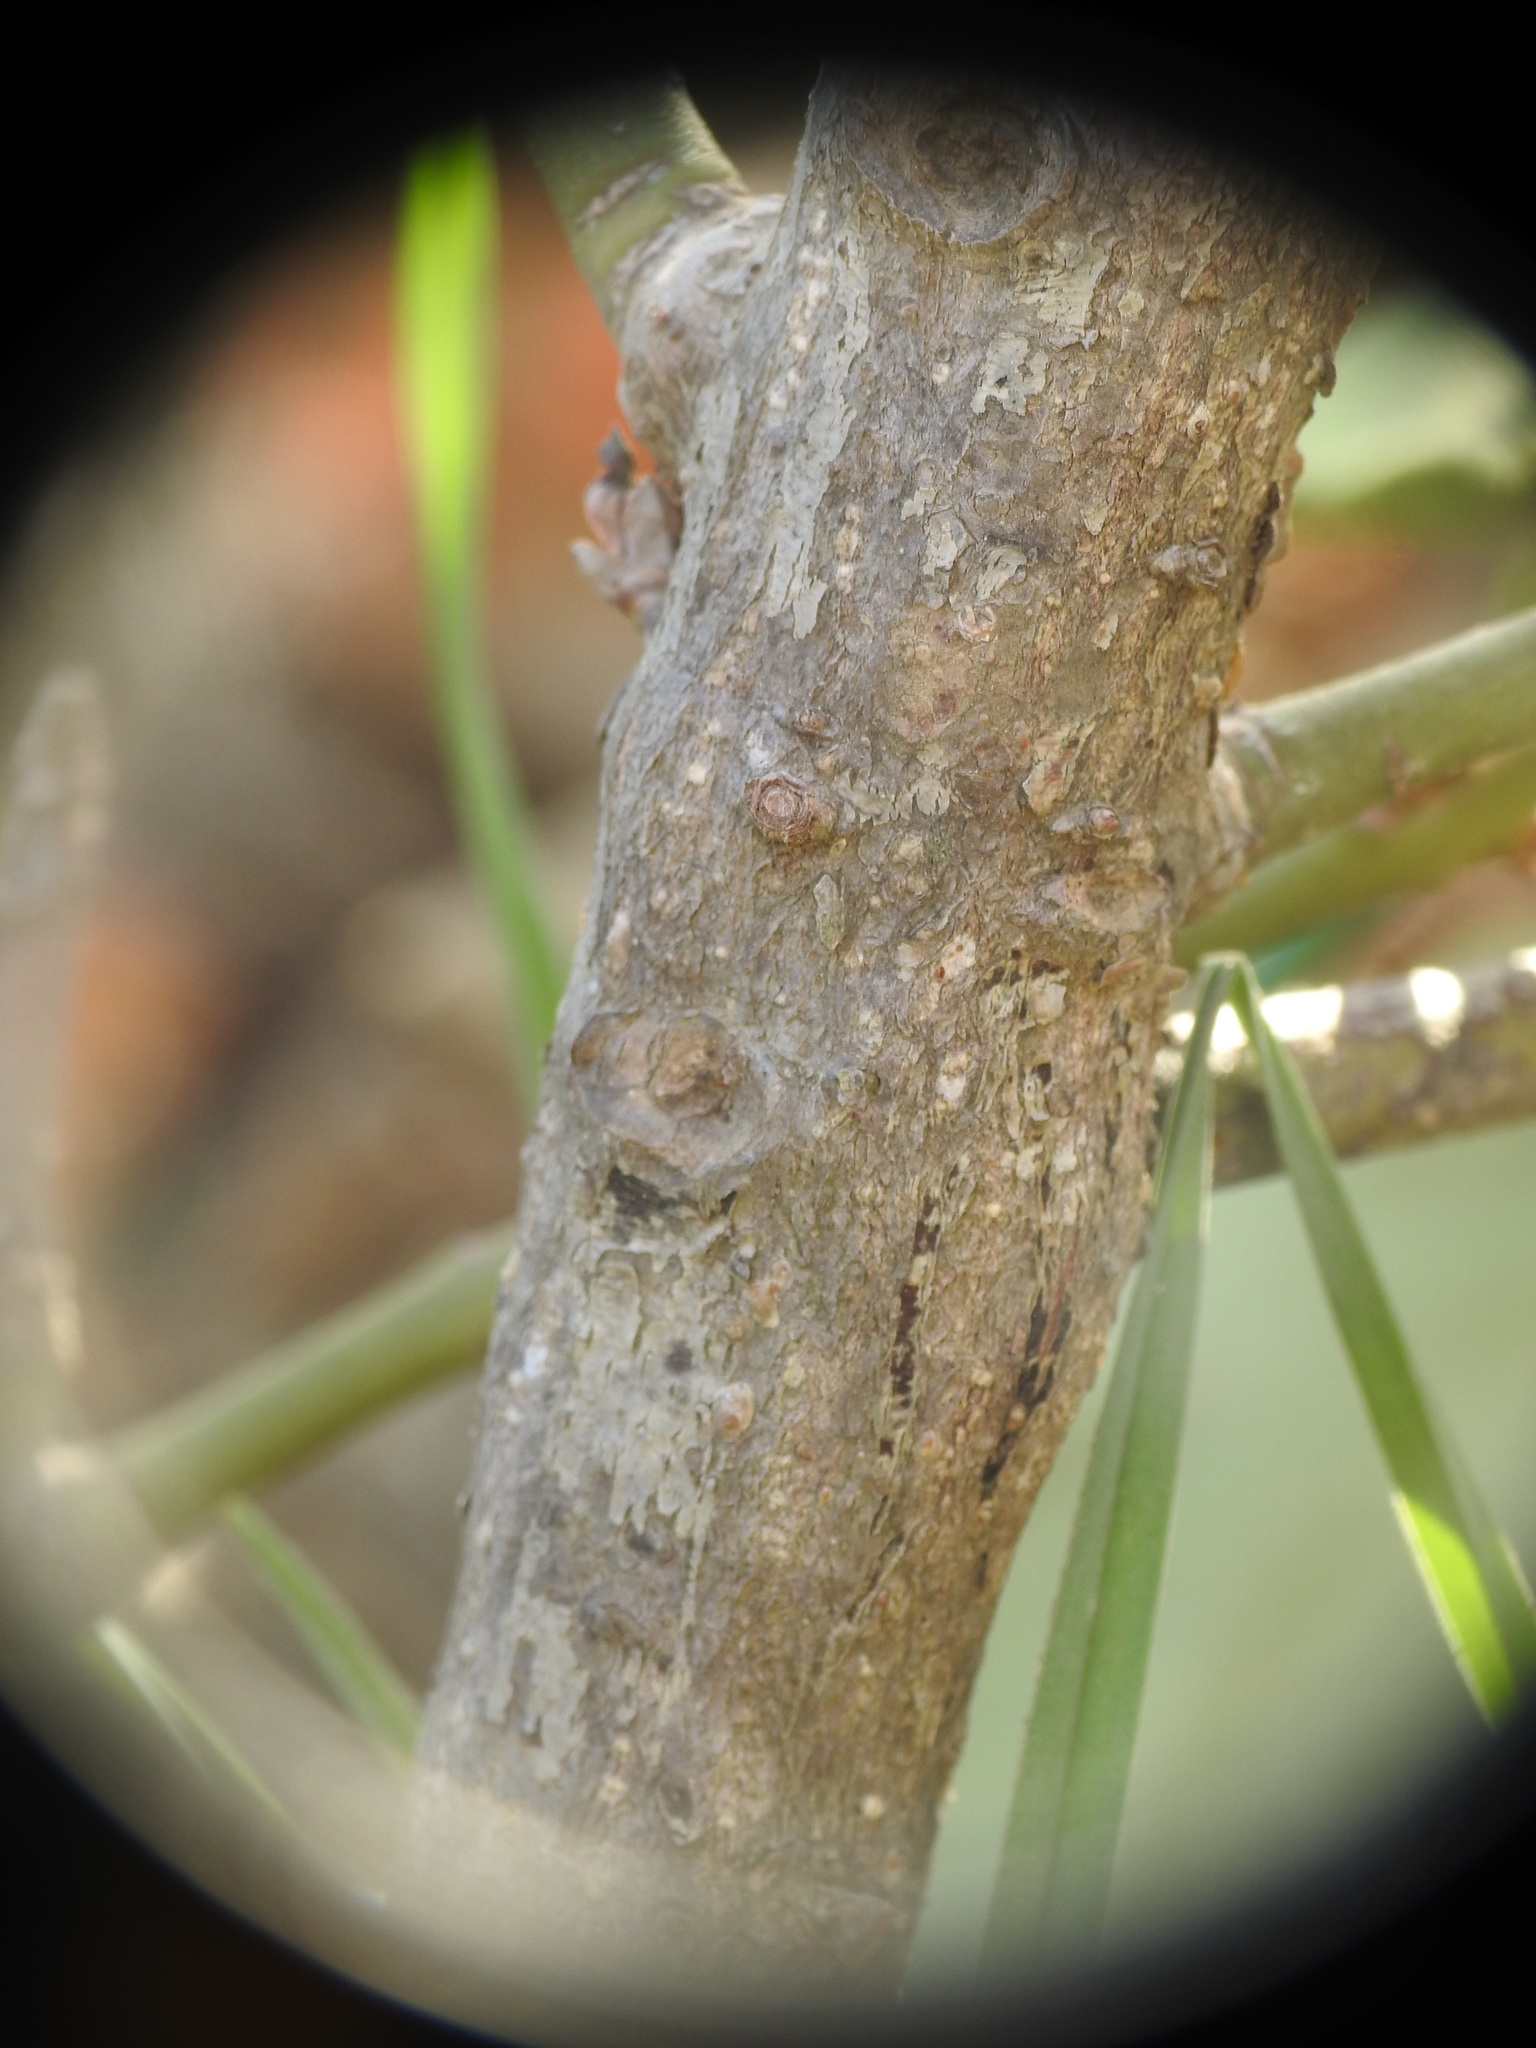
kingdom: Plantae
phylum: Tracheophyta
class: Magnoliopsida
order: Celastrales
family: Celastraceae
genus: Euonymus
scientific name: Euonymus japonicus
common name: Japanese spindletree
